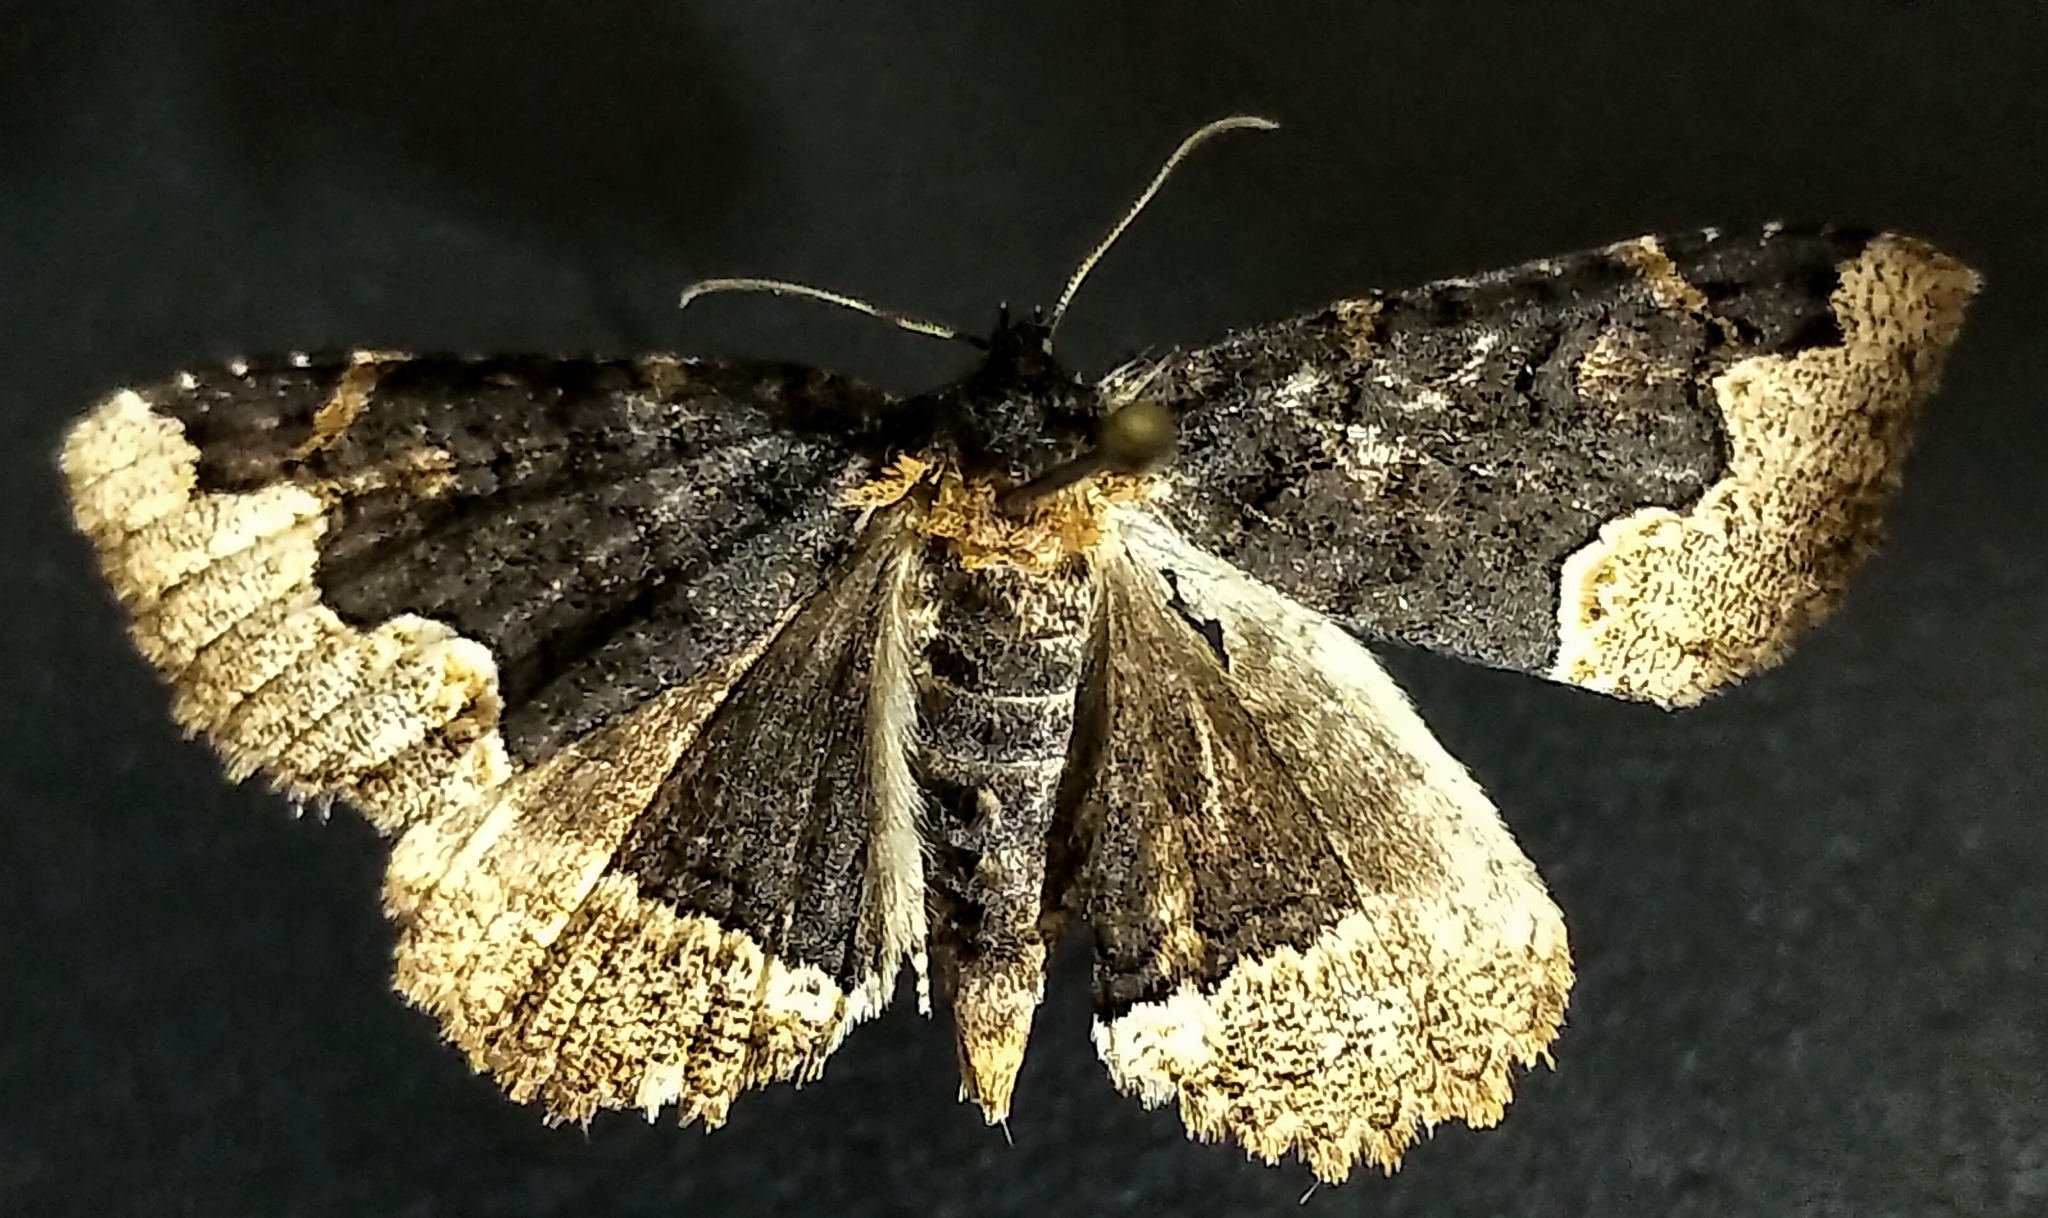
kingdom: Animalia
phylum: Arthropoda
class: Insecta
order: Lepidoptera
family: Erebidae
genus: Zale
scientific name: Zale horrida
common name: Horrid zale moth
